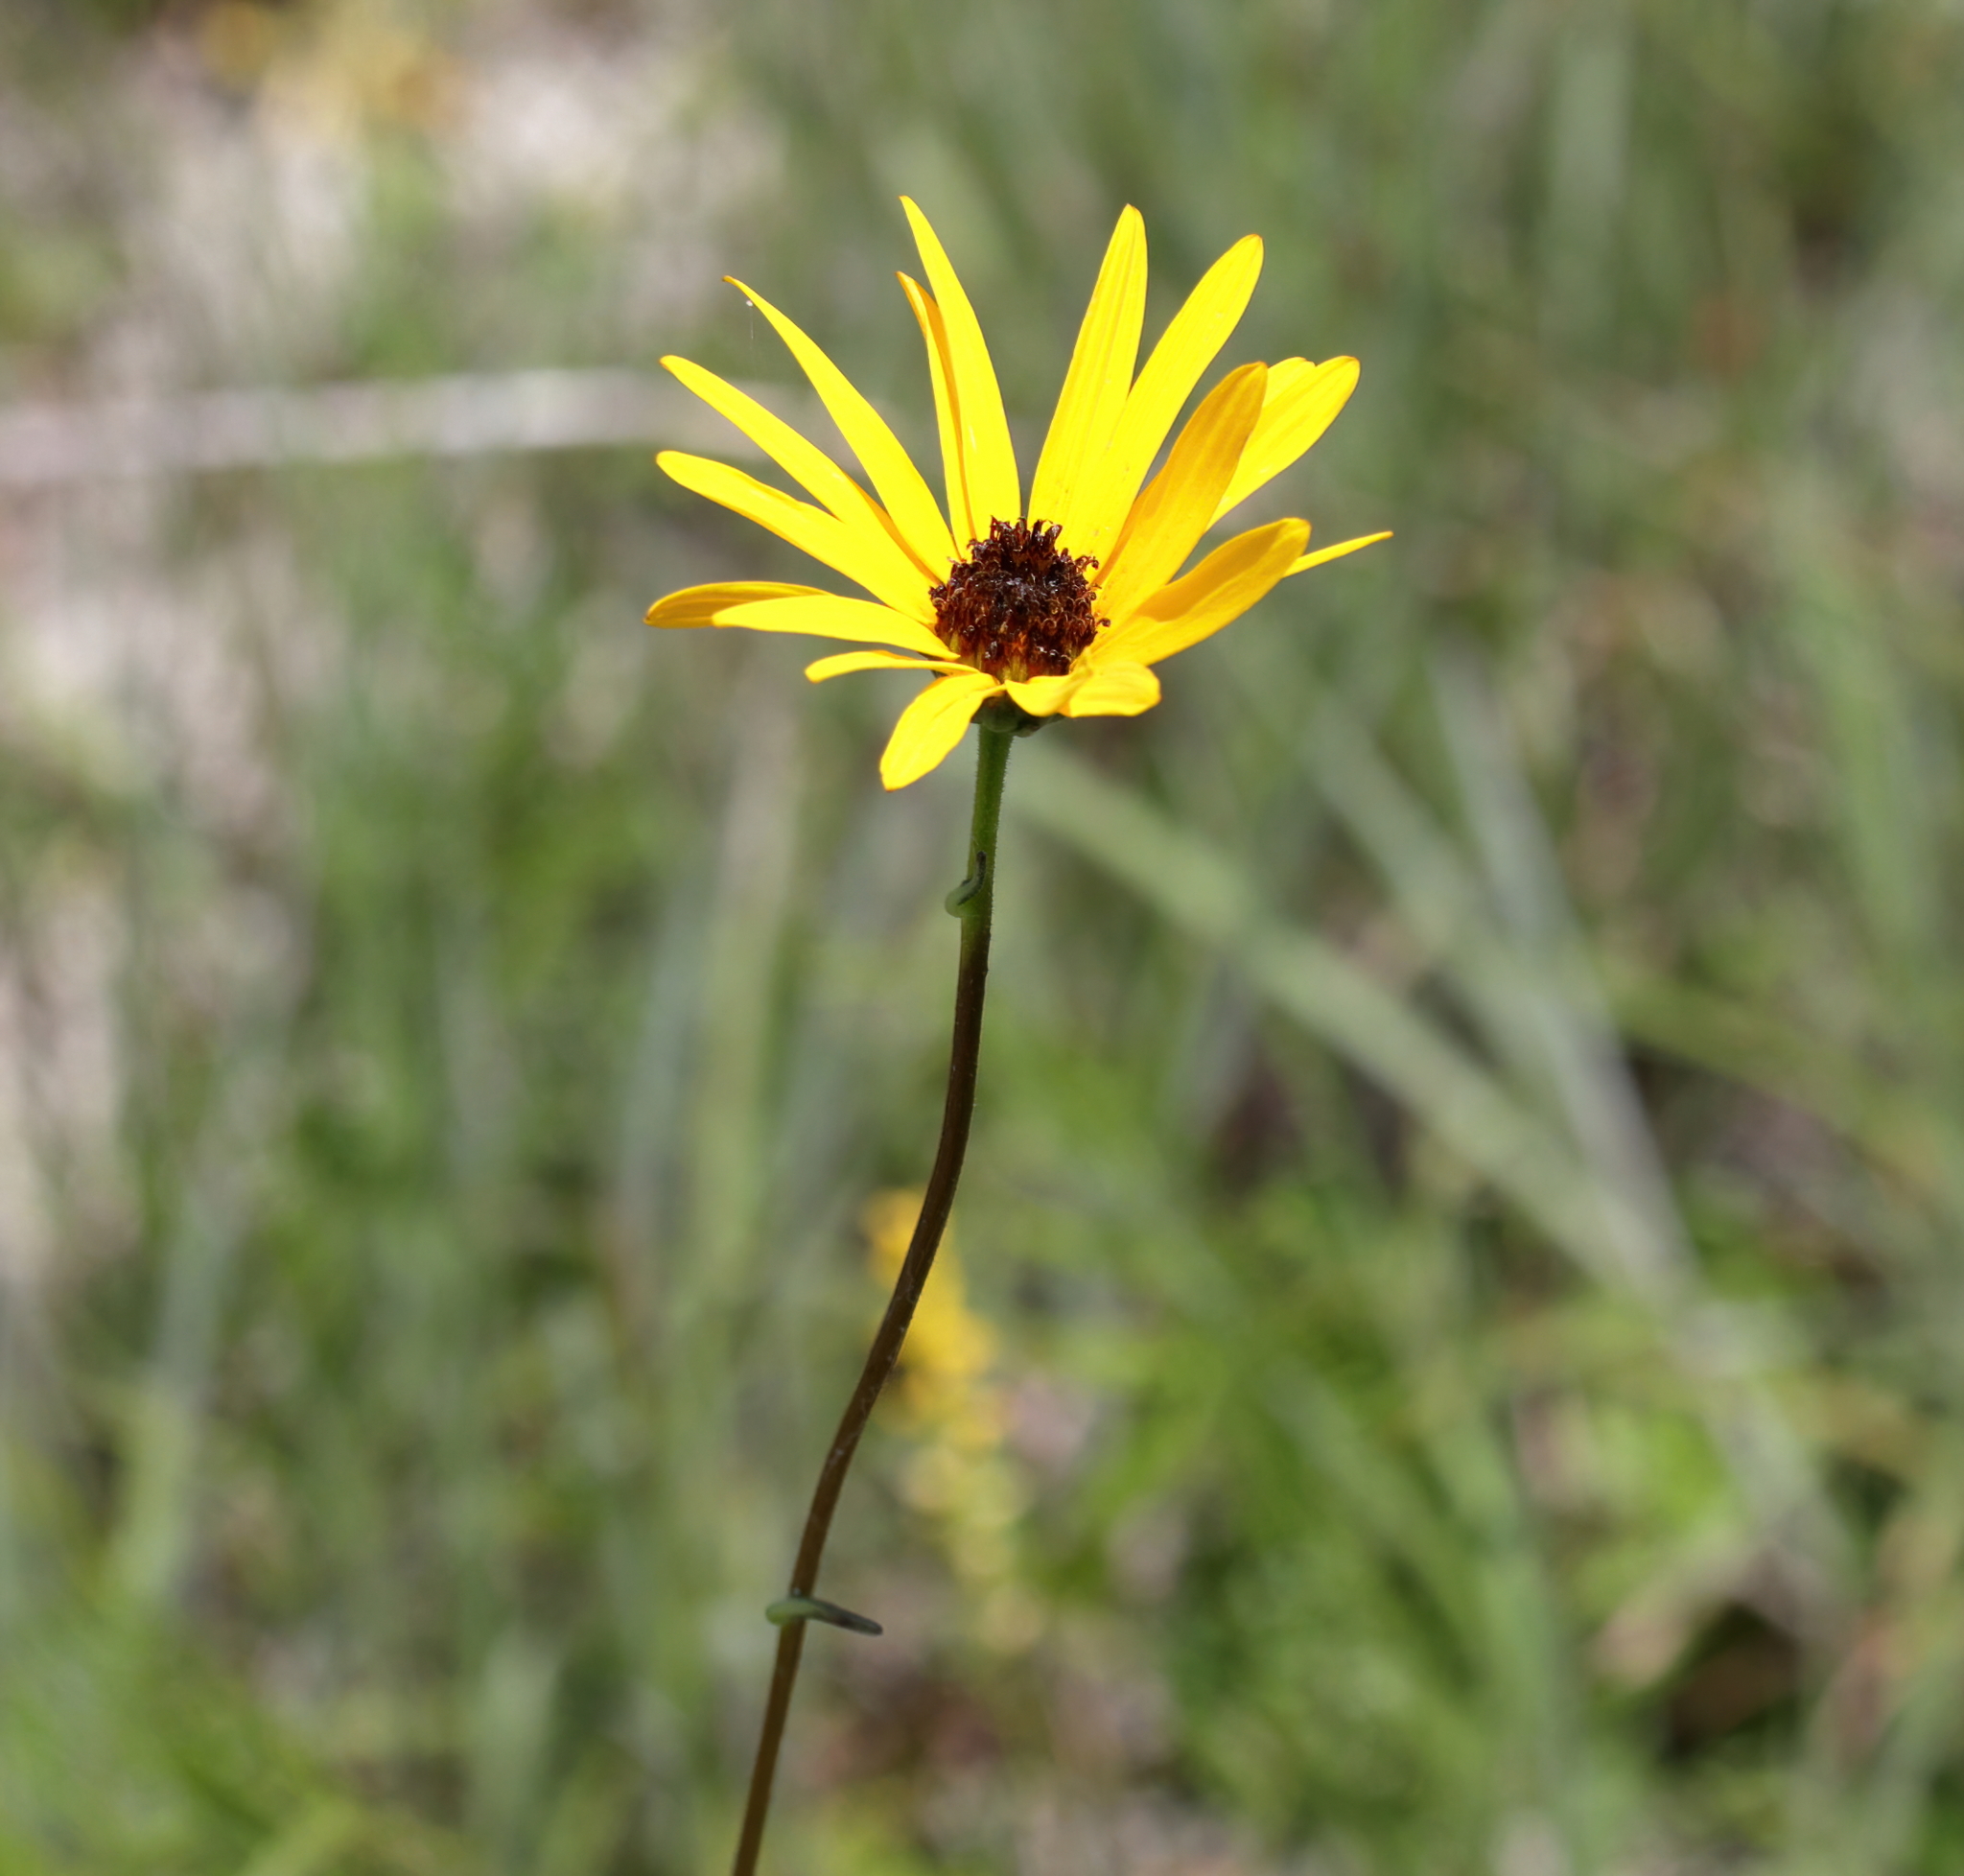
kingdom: Plantae
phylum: Tracheophyta
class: Magnoliopsida
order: Asterales
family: Asteraceae
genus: Helianthus
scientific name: Helianthus heterophyllus
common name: Wetland sunflower
